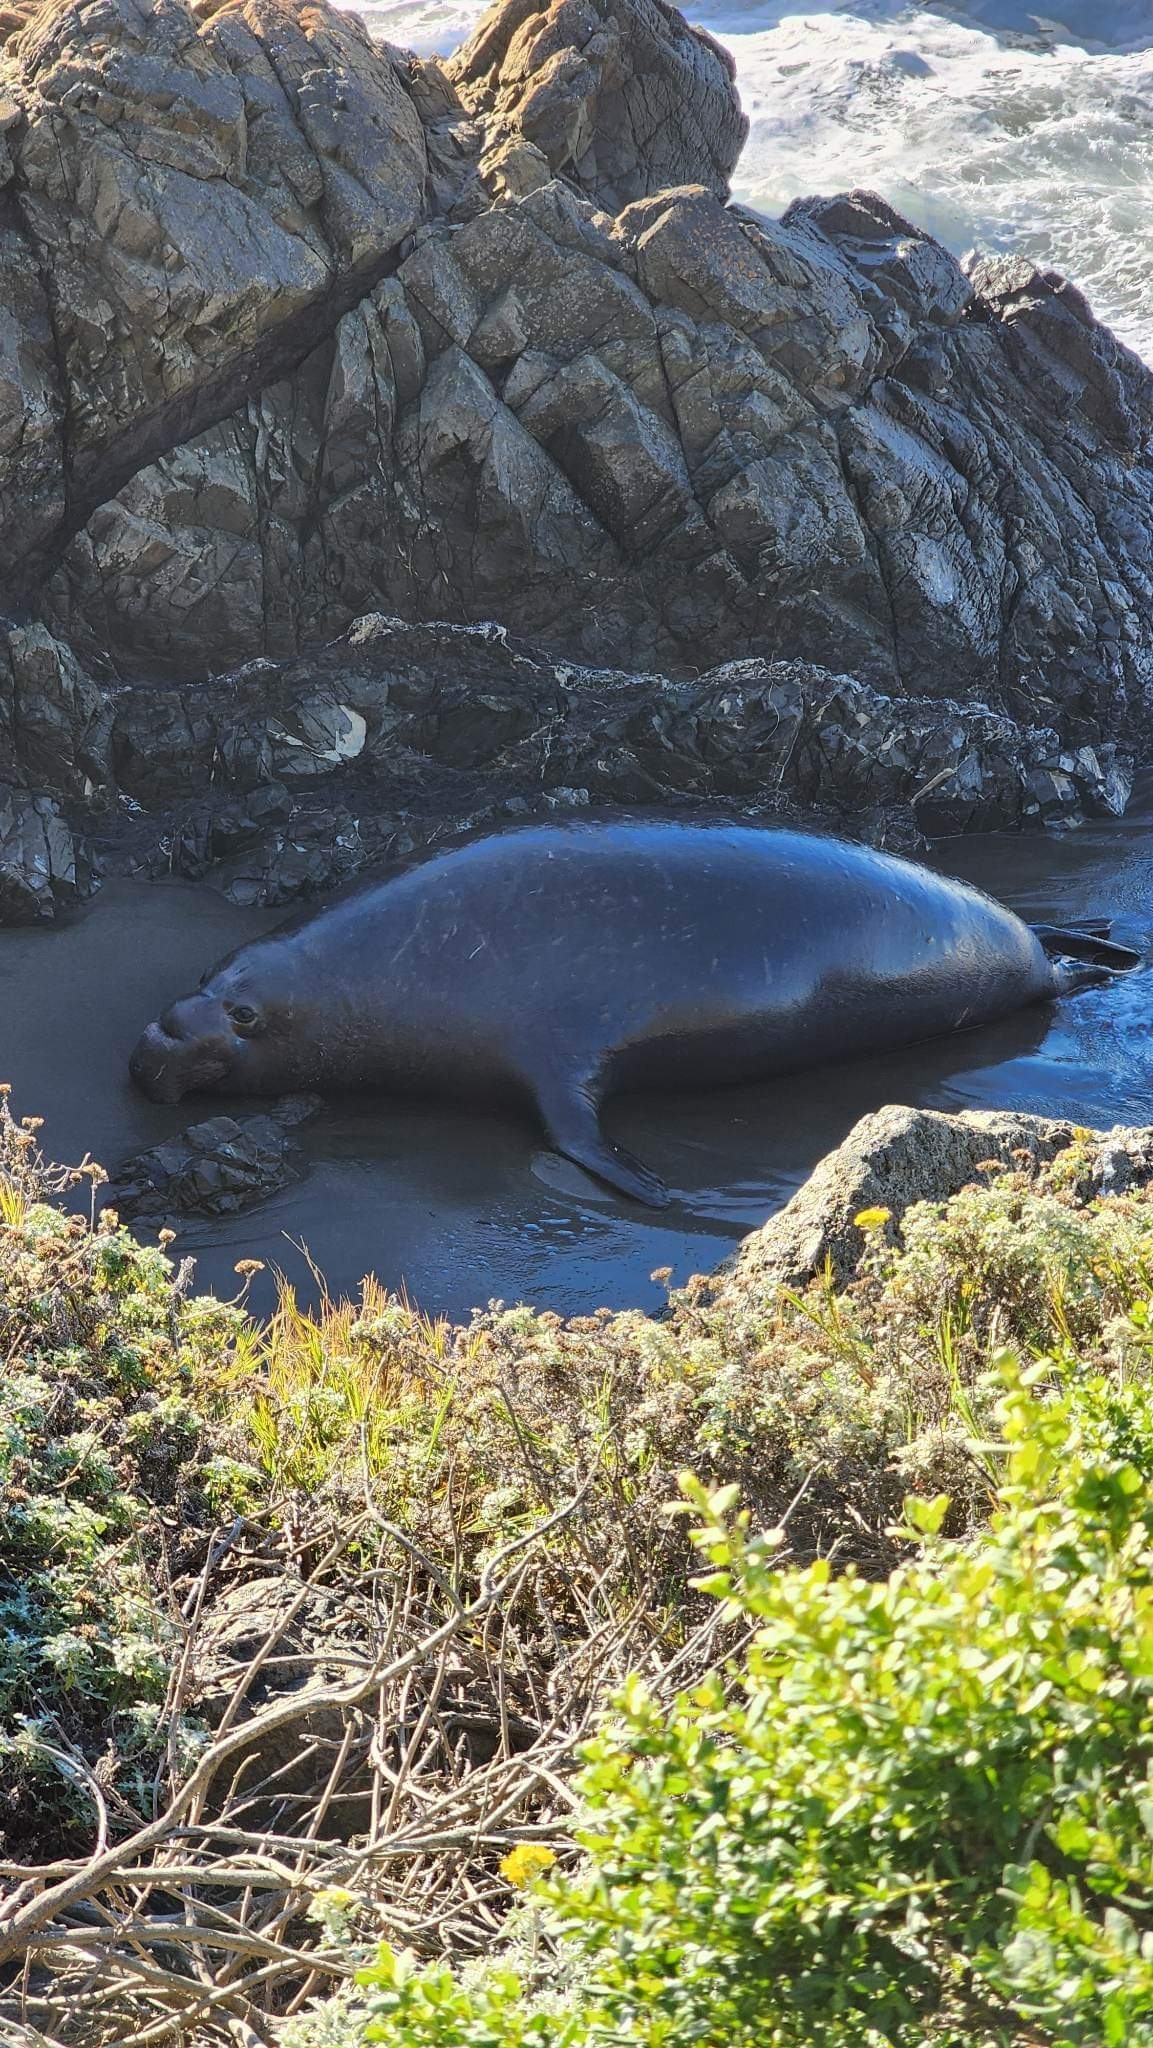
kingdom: Animalia
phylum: Chordata
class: Mammalia
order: Carnivora
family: Phocidae
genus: Mirounga
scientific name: Mirounga angustirostris
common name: Northern elephant seal
